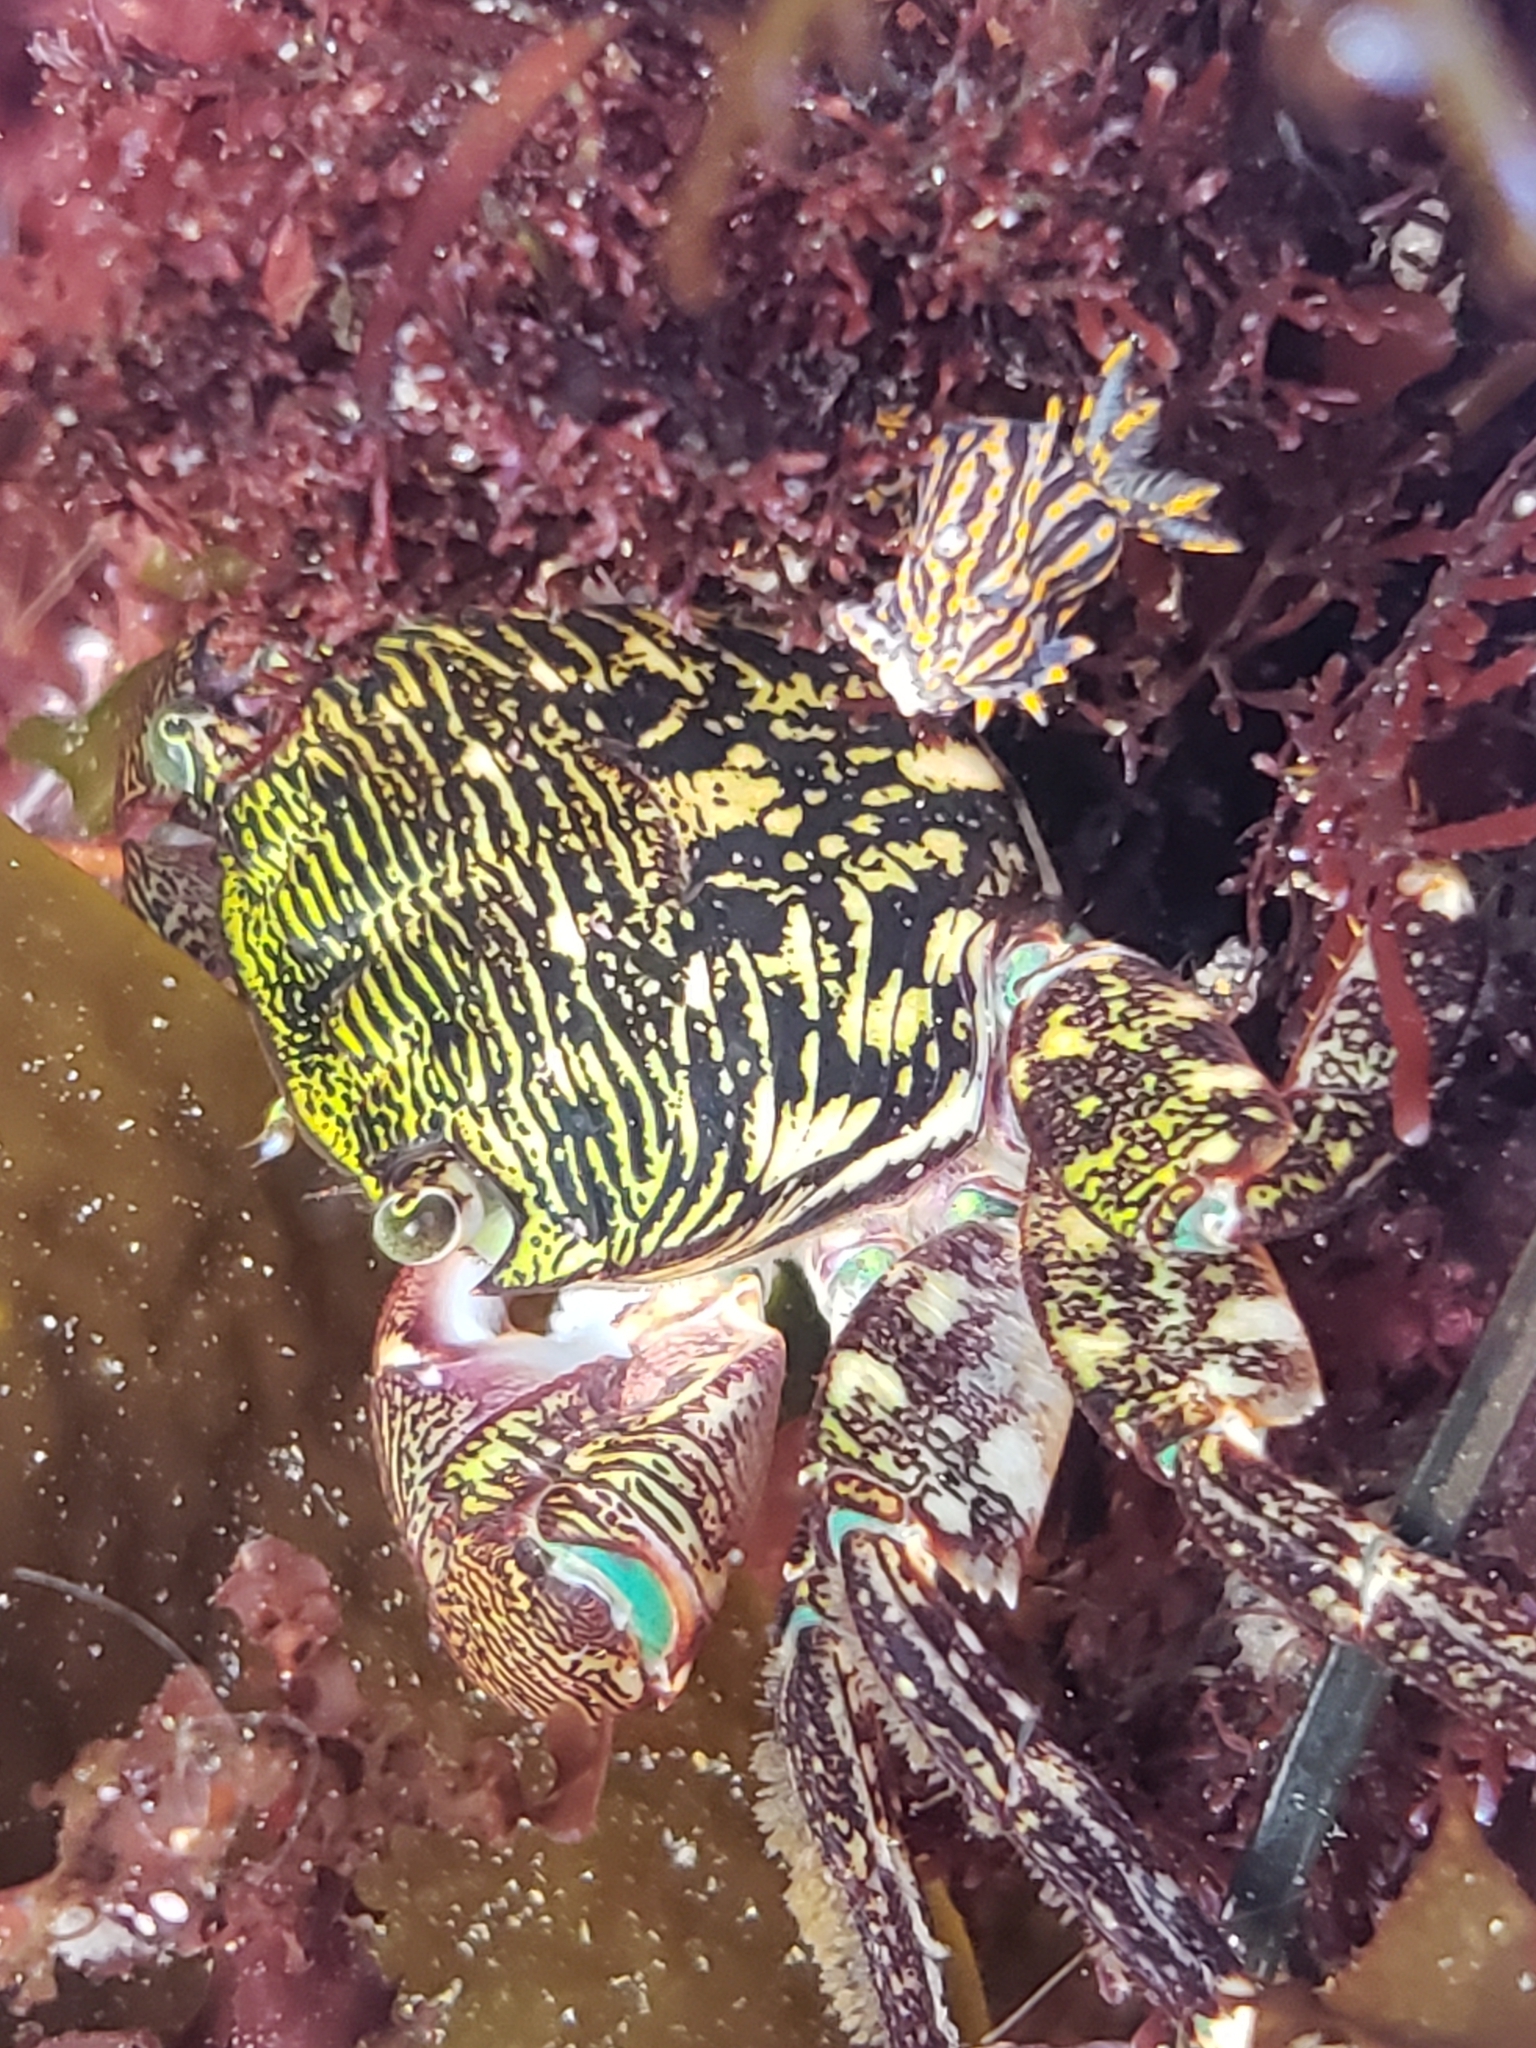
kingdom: Animalia
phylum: Arthropoda
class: Malacostraca
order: Decapoda
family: Grapsidae
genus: Pachygrapsus
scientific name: Pachygrapsus crassipes
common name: Striped shore crab
